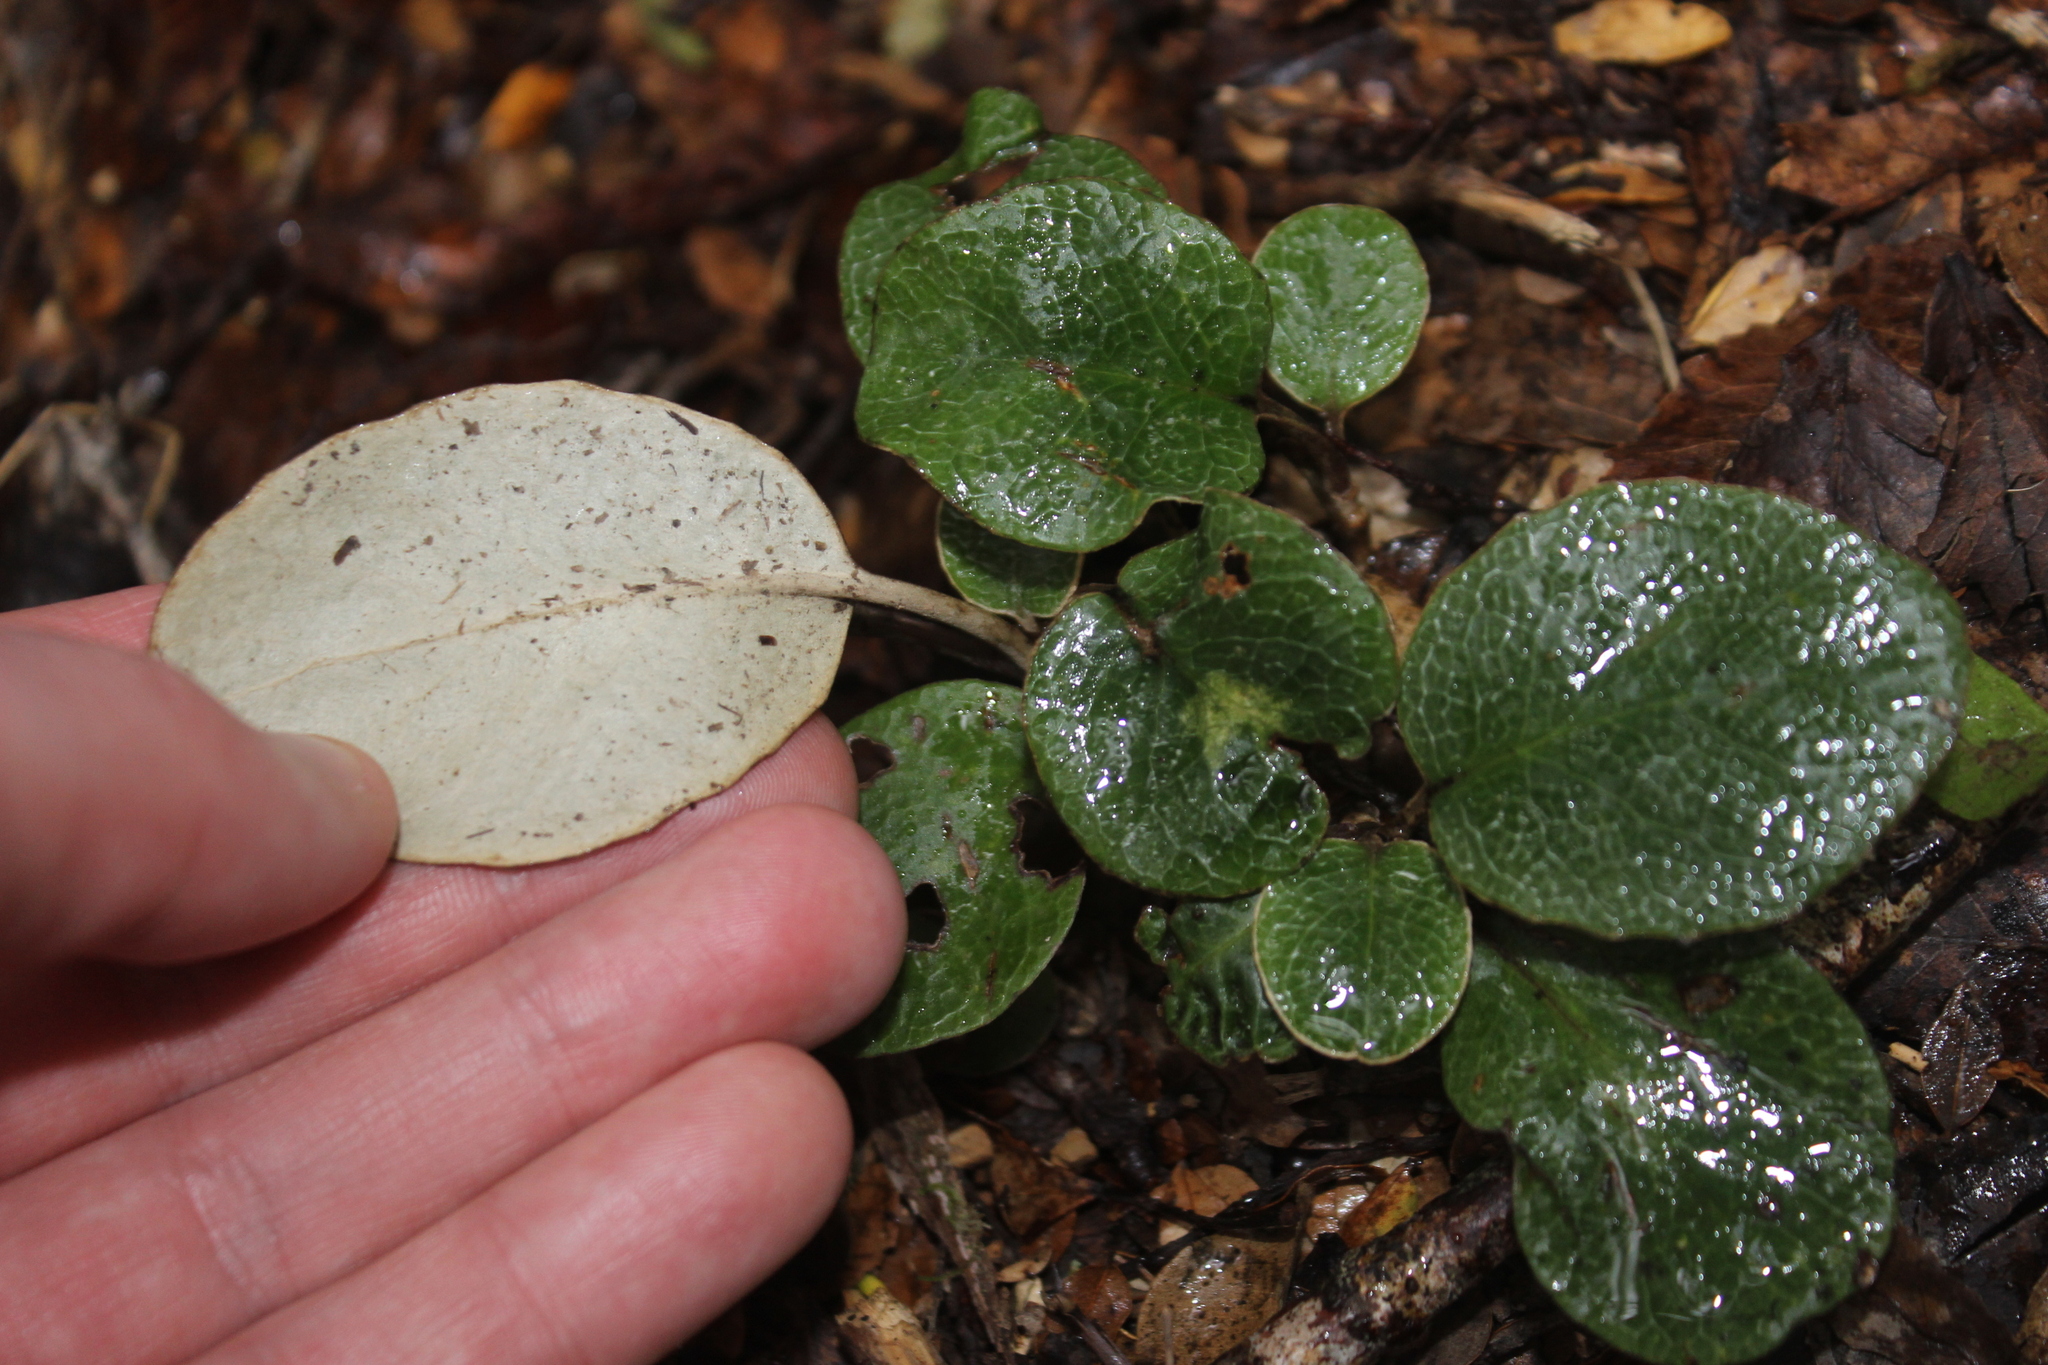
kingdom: Plantae
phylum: Tracheophyta
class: Magnoliopsida
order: Asterales
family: Asteraceae
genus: Brachyglottis
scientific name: Brachyglottis elaeagnifolia
